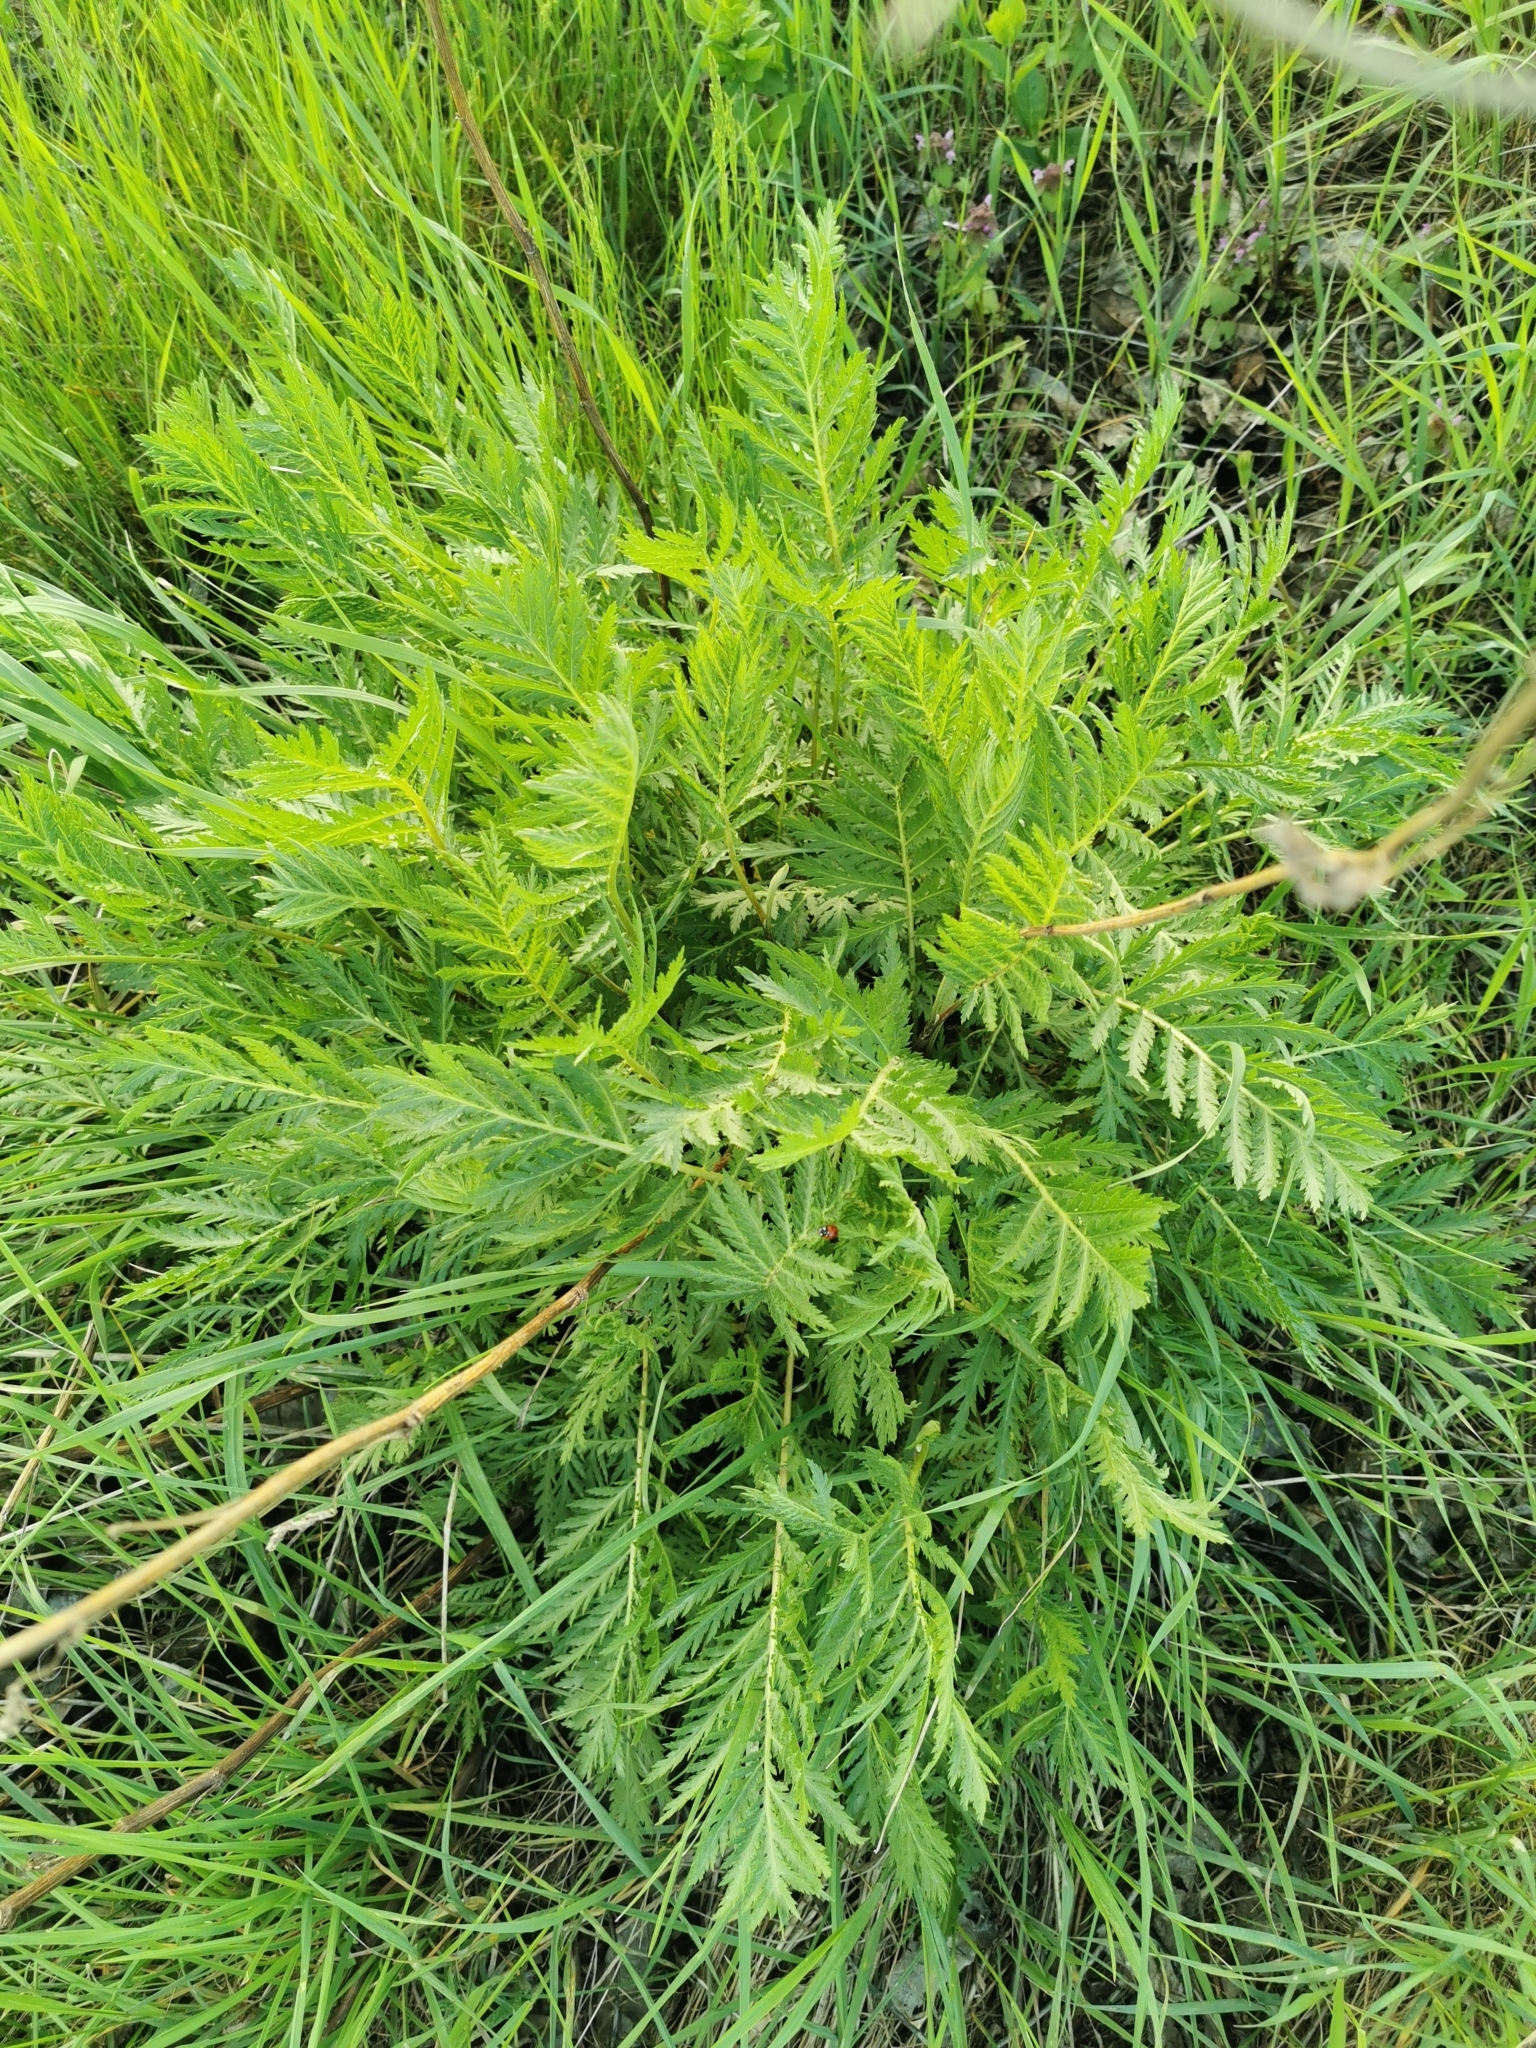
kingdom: Plantae
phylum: Tracheophyta
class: Magnoliopsida
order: Asterales
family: Asteraceae
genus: Tanacetum
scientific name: Tanacetum vulgare
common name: Common tansy
